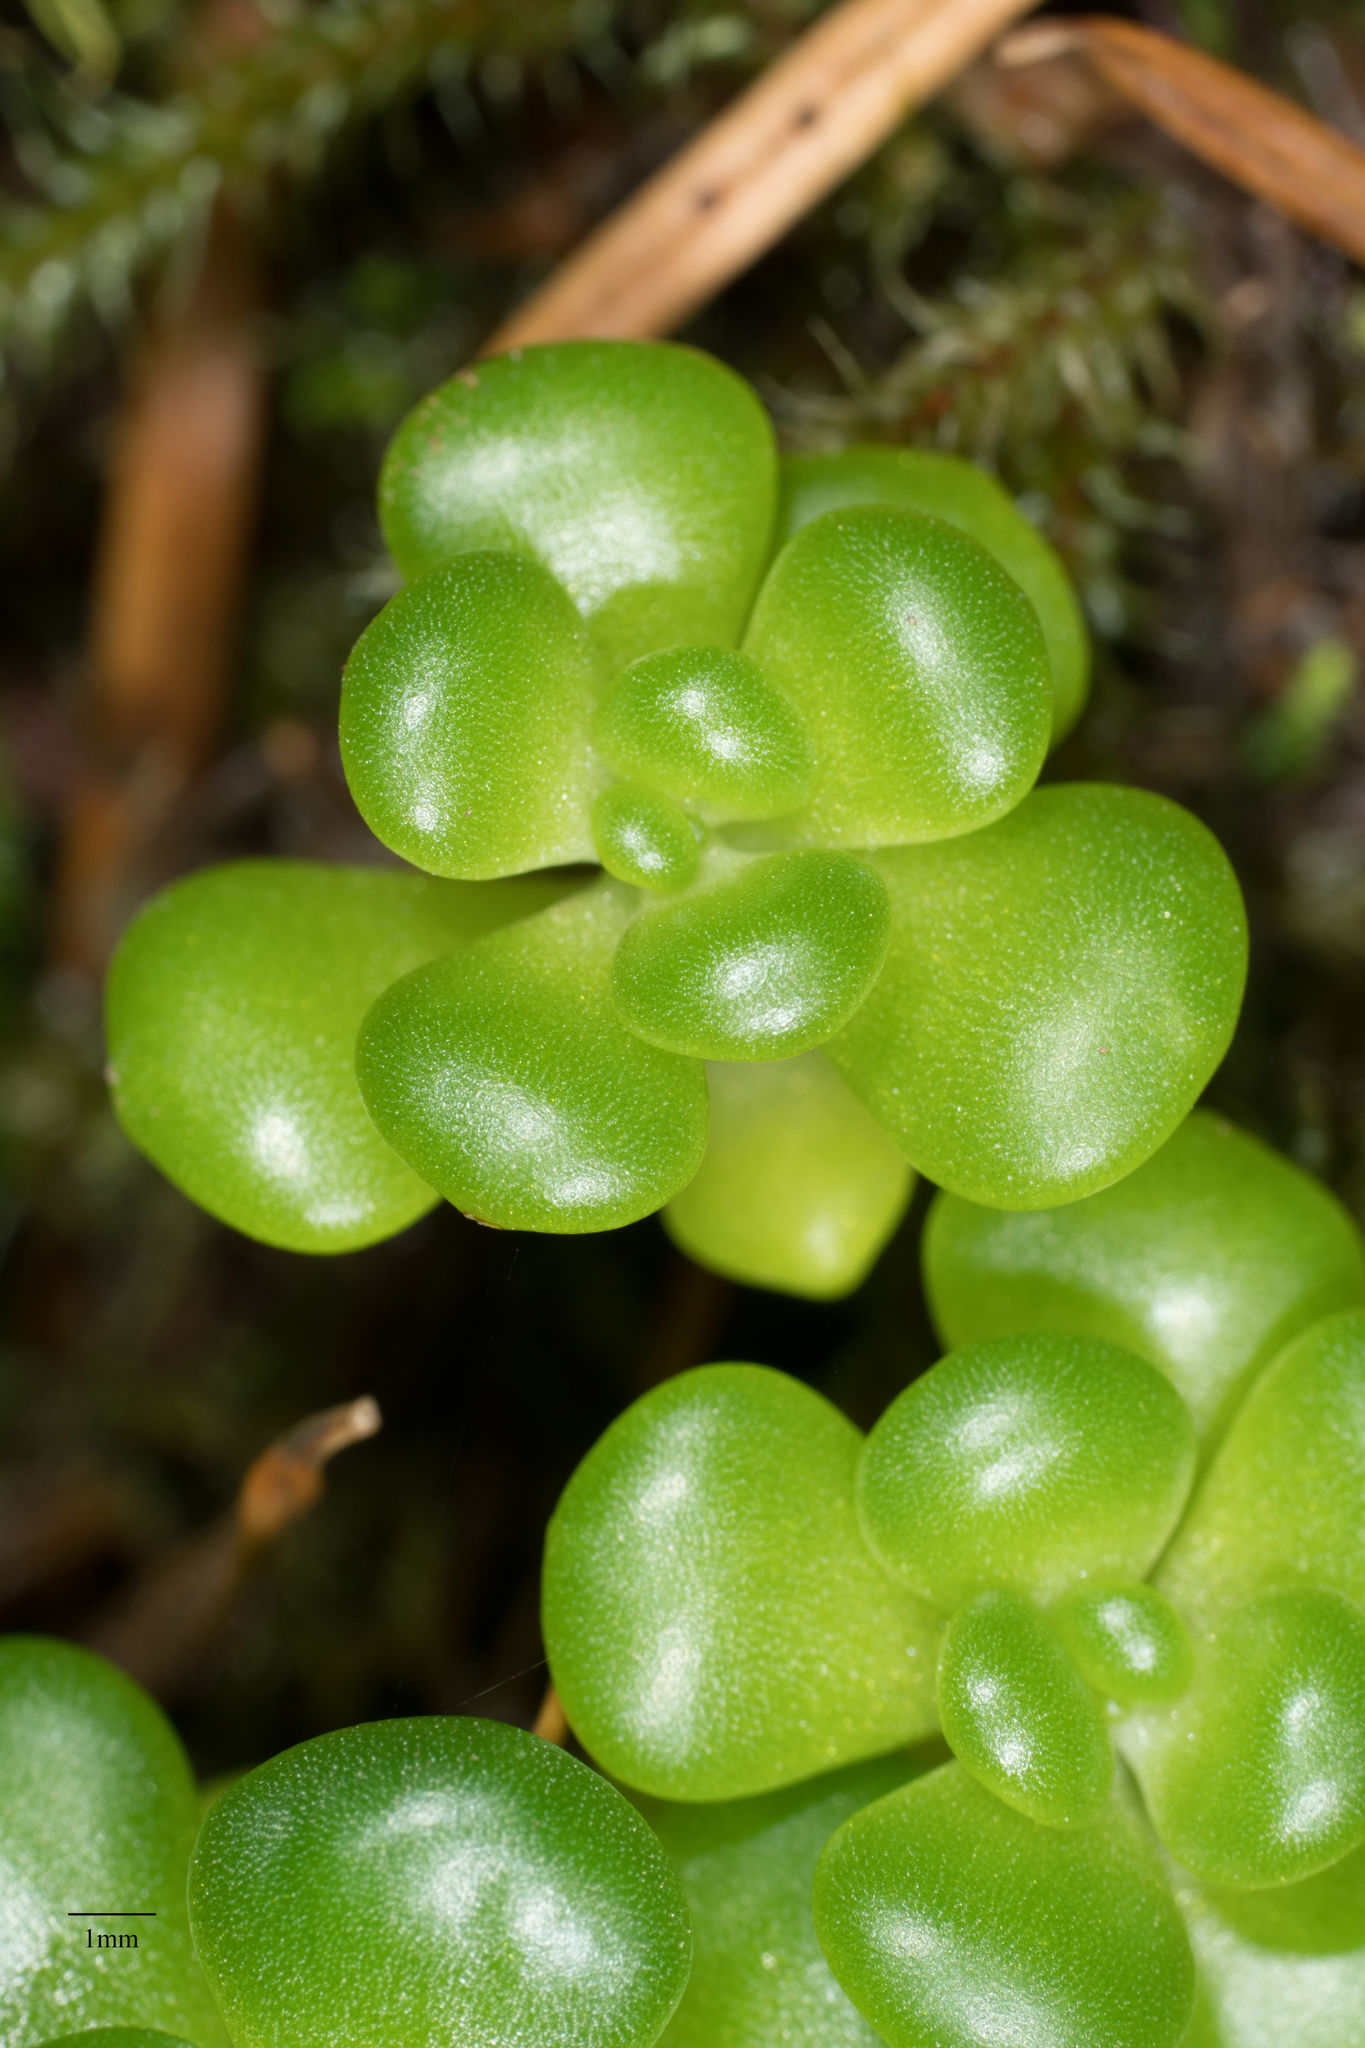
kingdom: Plantae
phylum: Tracheophyta
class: Magnoliopsida
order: Saxifragales
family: Crassulaceae
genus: Sedum
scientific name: Sedum oreganum
